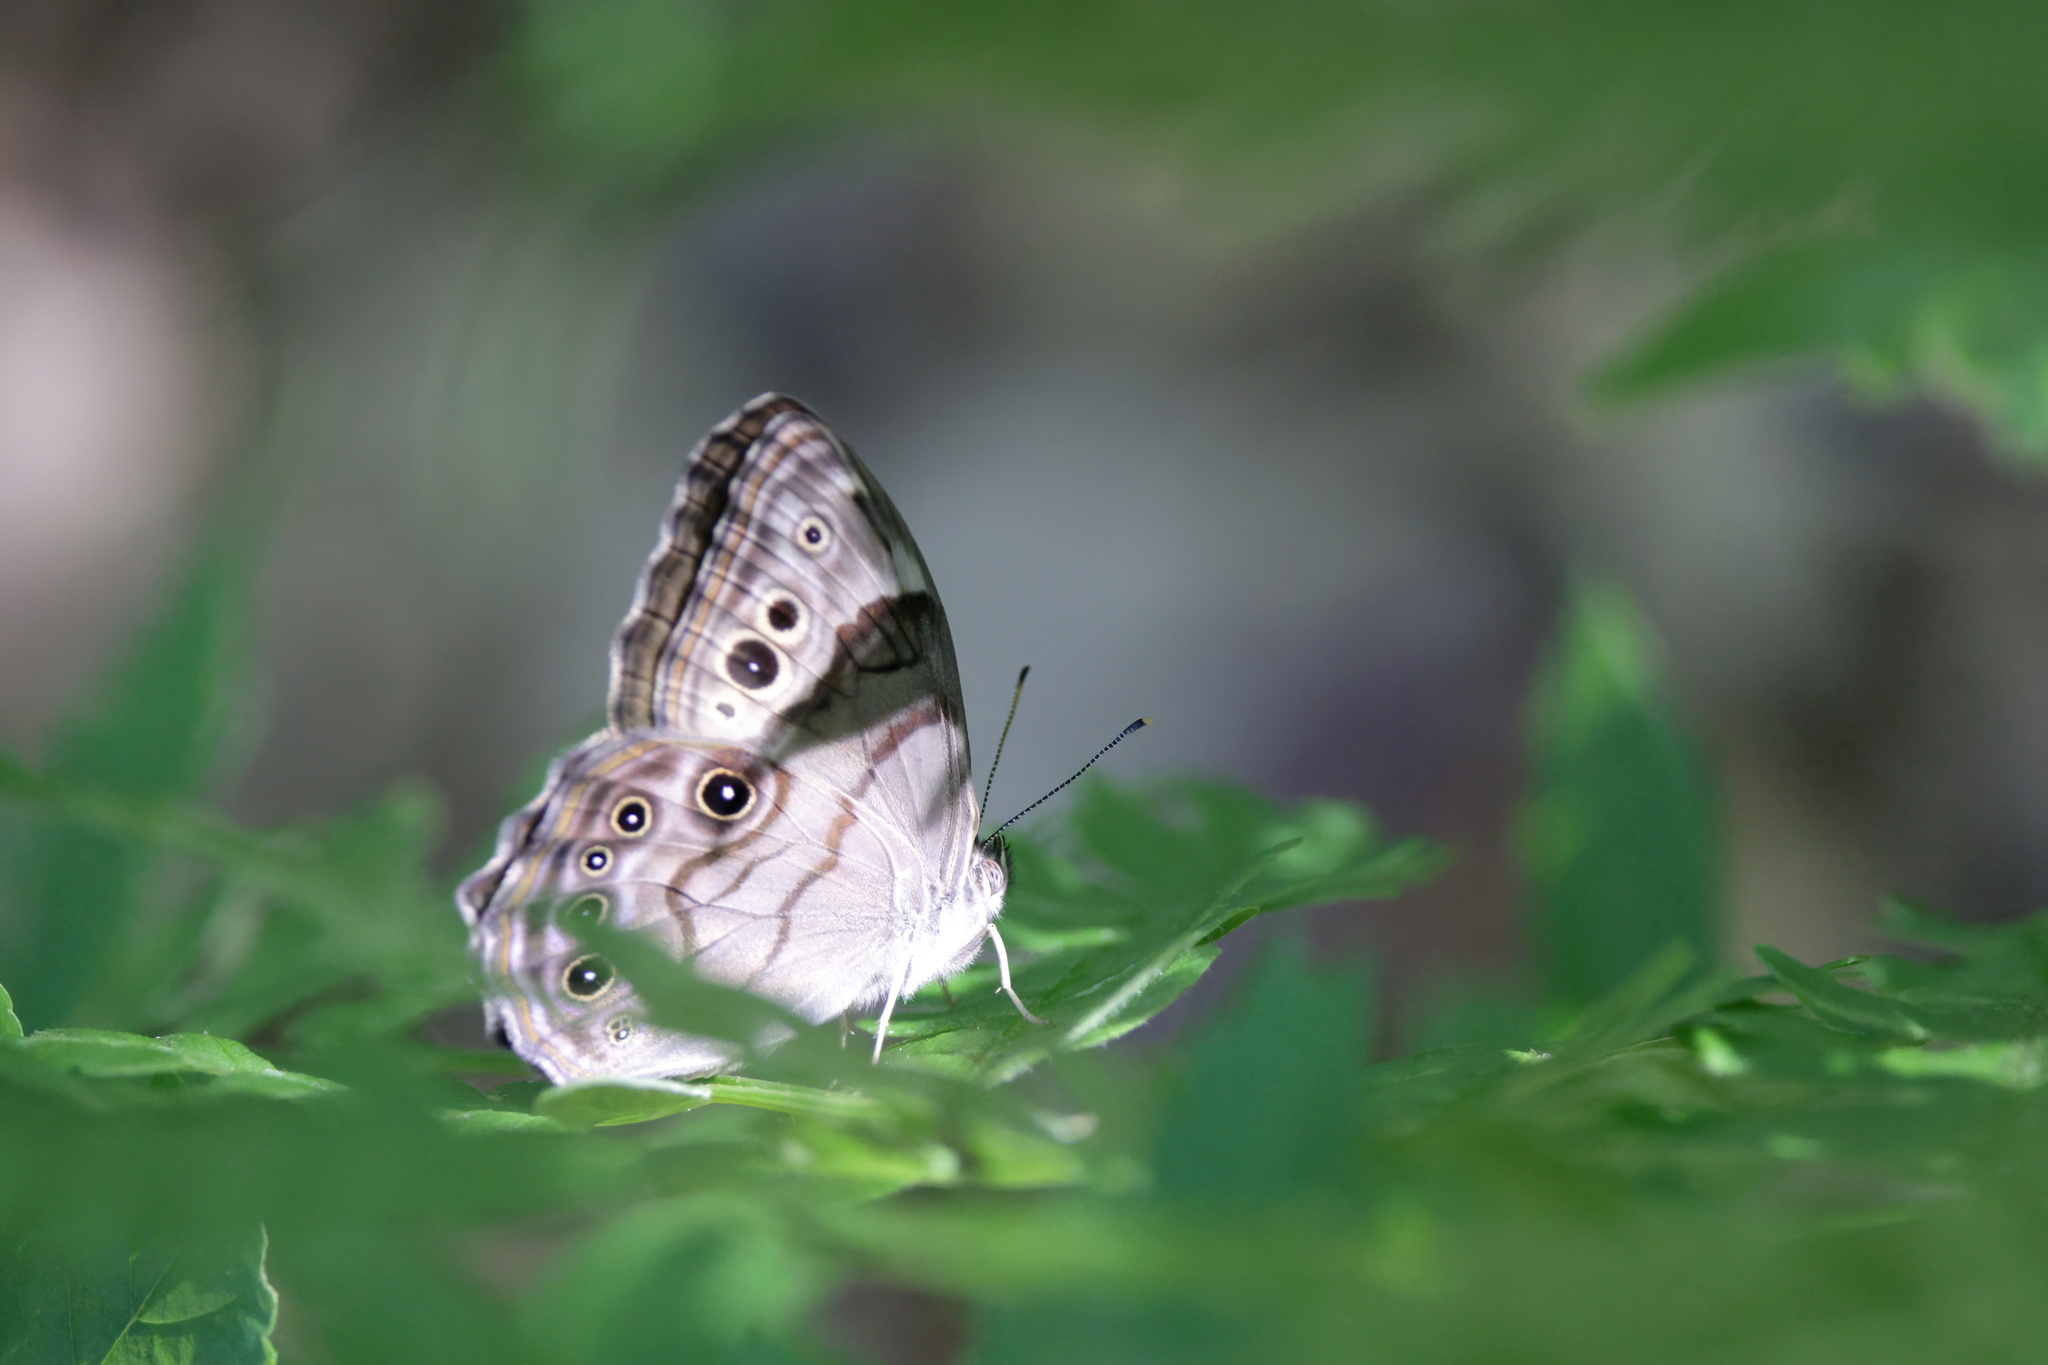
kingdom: Animalia
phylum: Arthropoda
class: Insecta
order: Lepidoptera
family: Nymphalidae
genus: Lethe
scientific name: Lethe anthedon
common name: Northern pearly-eye
